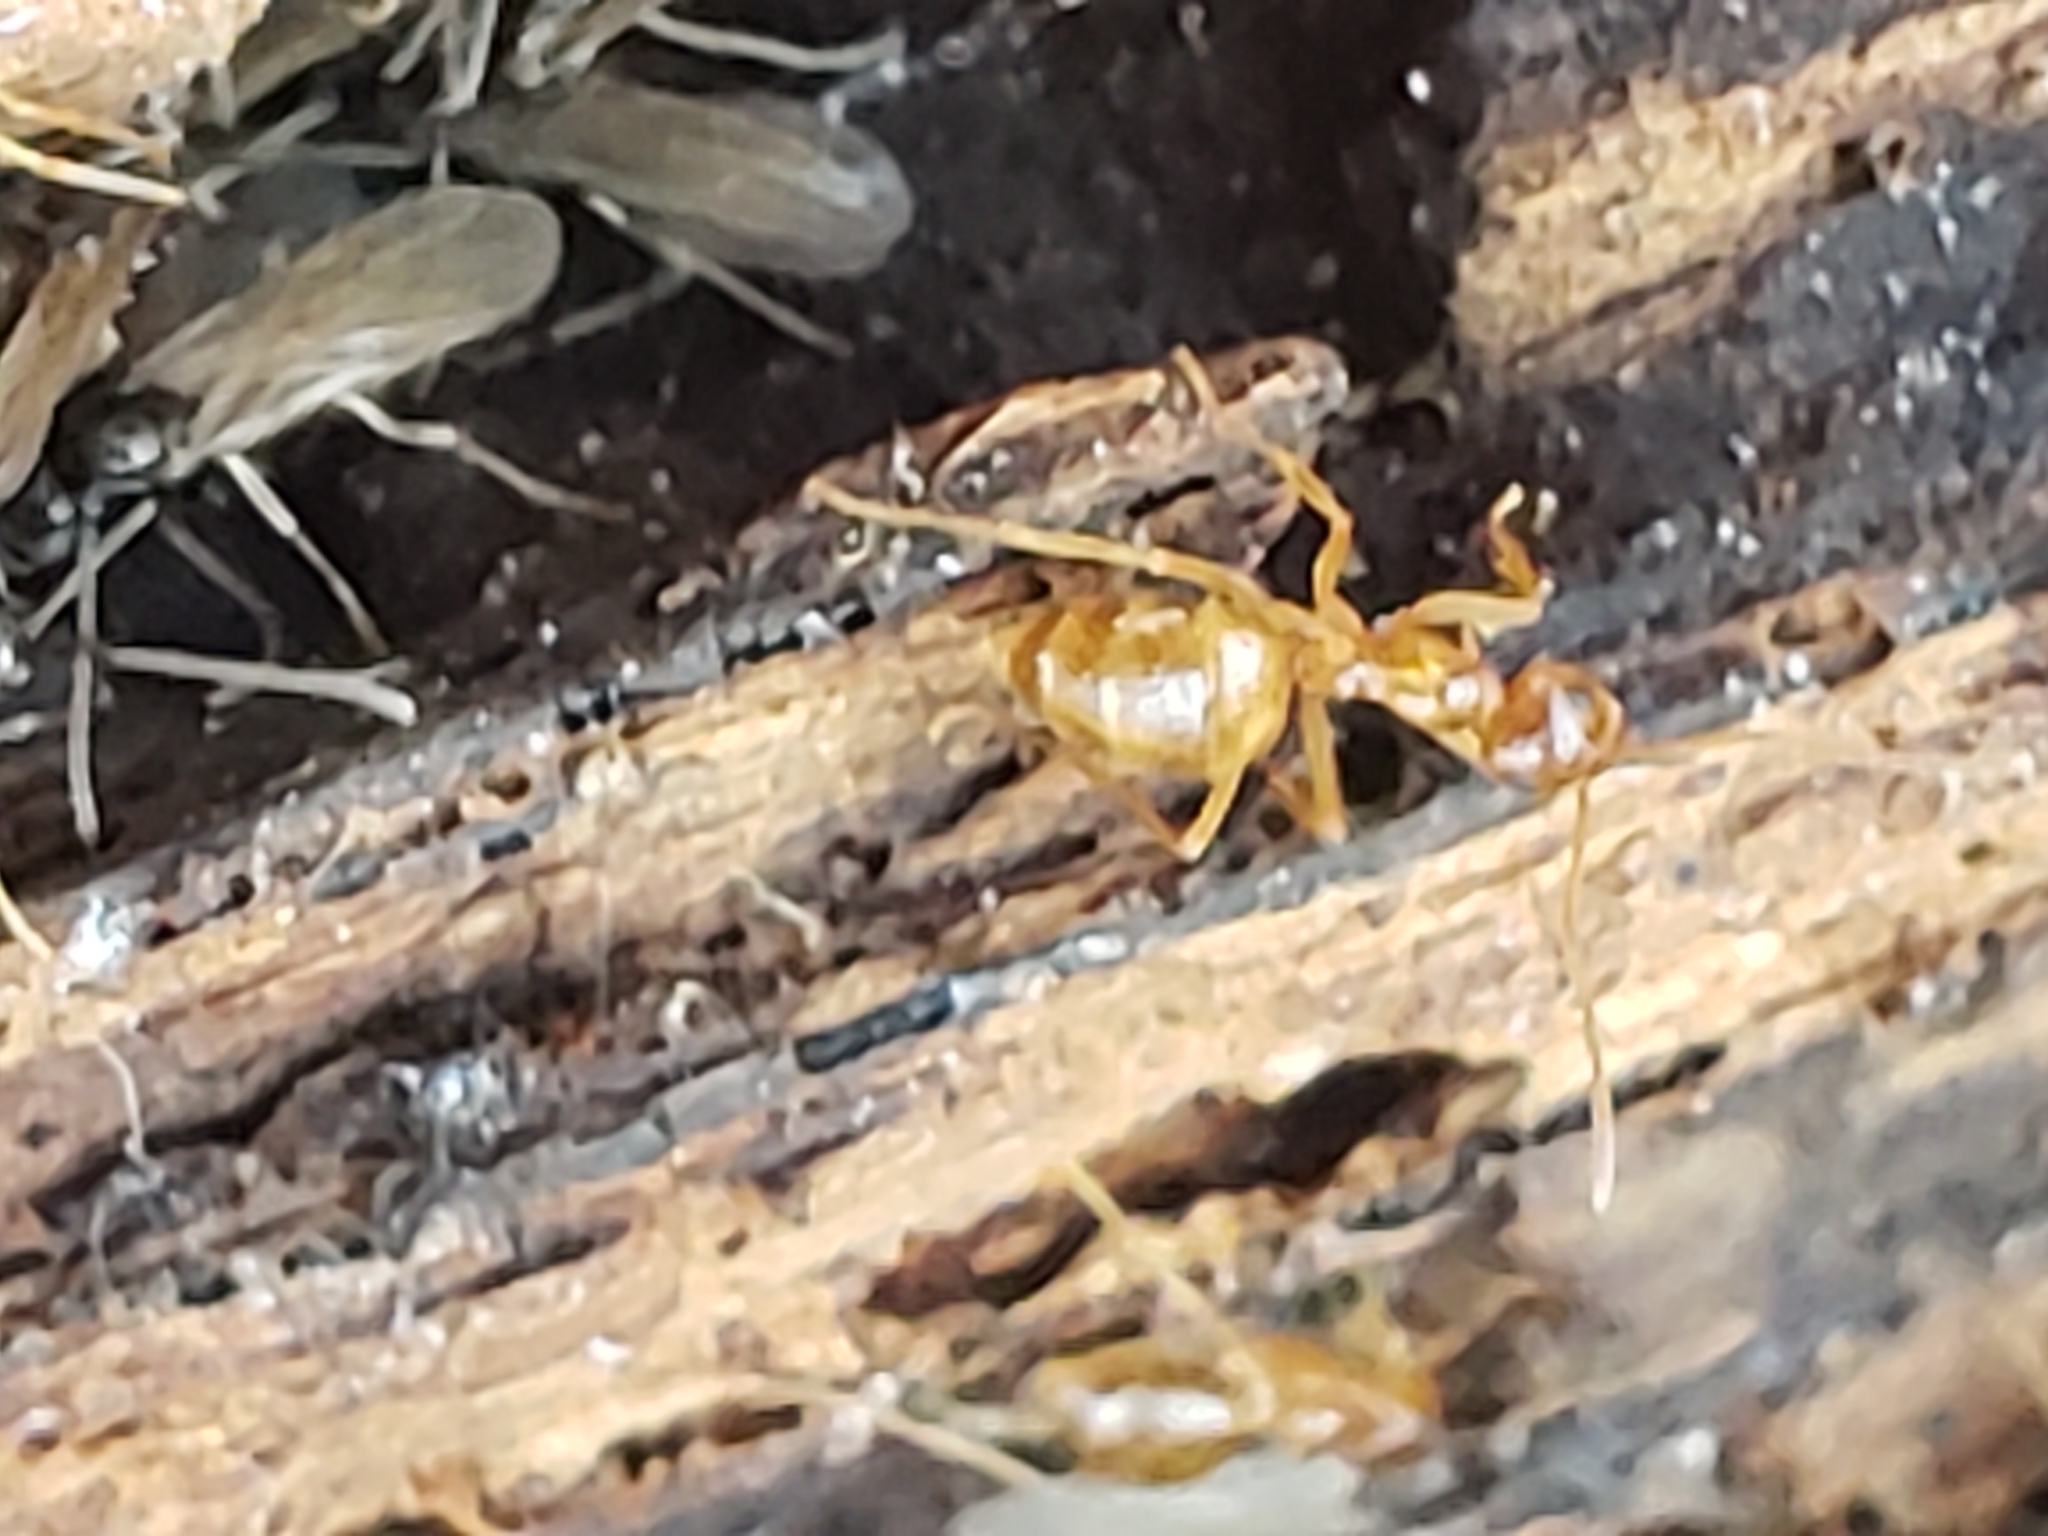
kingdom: Animalia
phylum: Arthropoda
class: Insecta
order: Hymenoptera
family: Formicidae
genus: Prenolepis
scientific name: Prenolepis imparis
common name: Small honey ant
